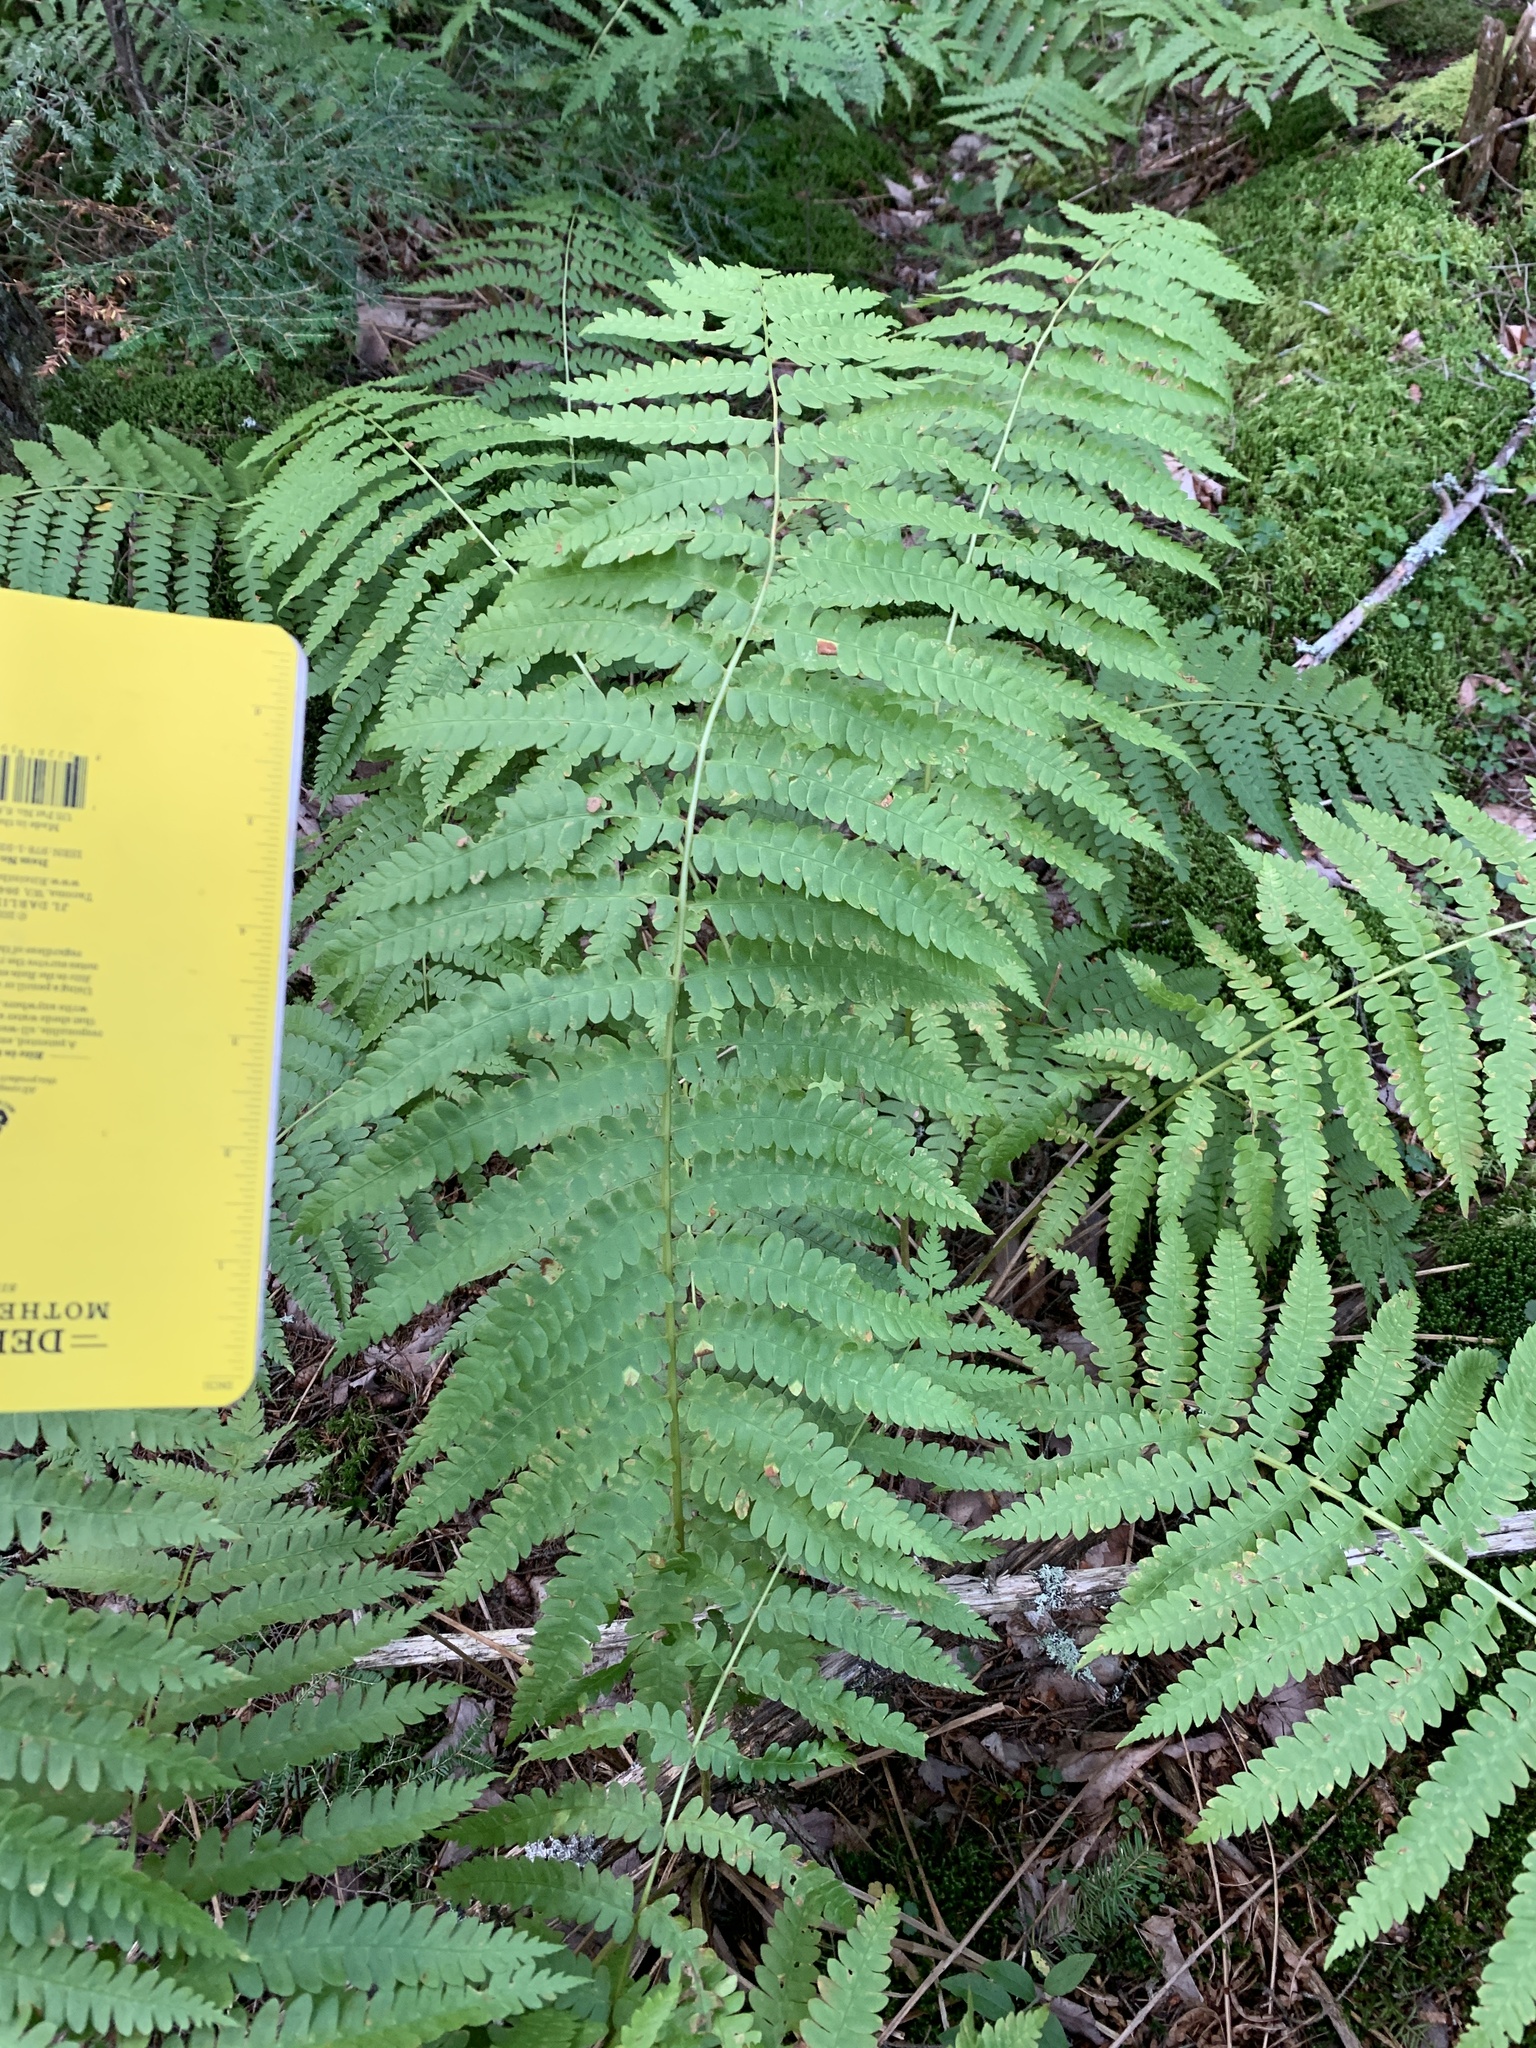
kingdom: Plantae
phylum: Tracheophyta
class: Polypodiopsida
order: Osmundales
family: Osmundaceae
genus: Osmundastrum
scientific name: Osmundastrum cinnamomeum
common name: Cinnamon fern
